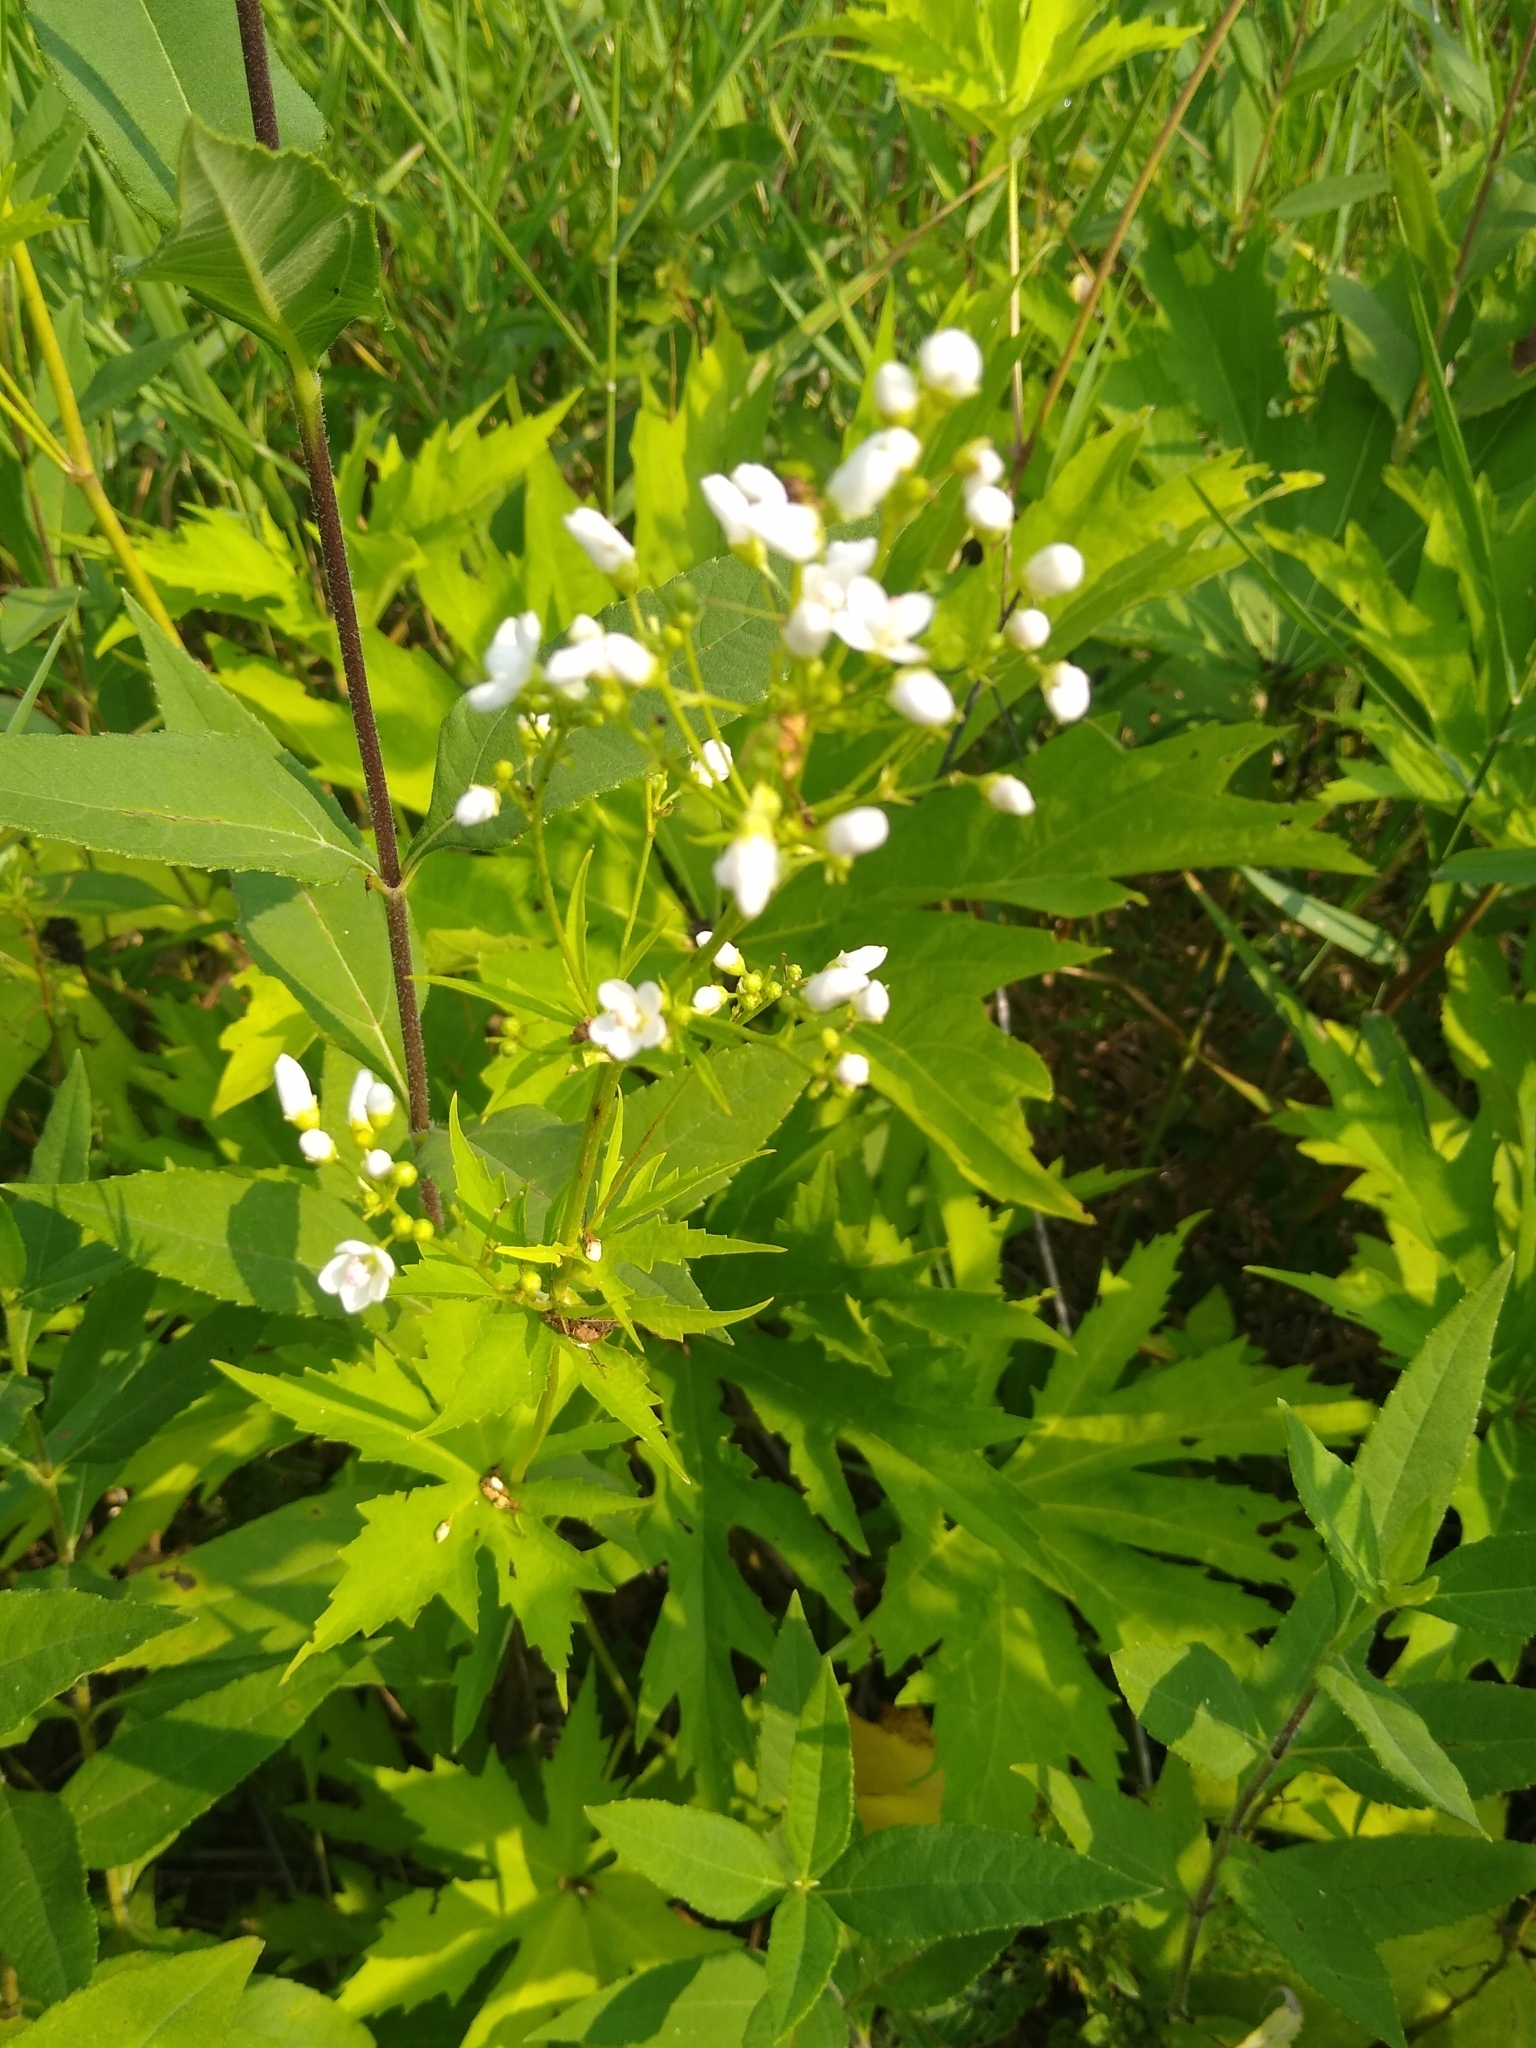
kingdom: Plantae
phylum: Tracheophyta
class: Magnoliopsida
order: Malvales
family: Malvaceae
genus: Napaea
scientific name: Napaea dioica
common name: Glade-mallow
